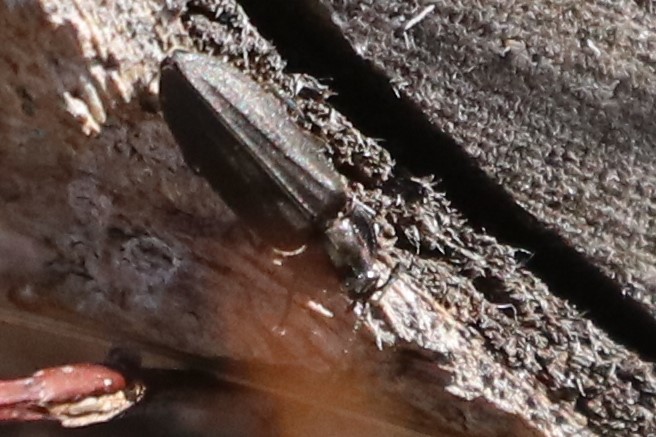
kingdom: Animalia
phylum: Arthropoda
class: Insecta
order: Coleoptera
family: Lampyridae
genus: Photinus
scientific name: Photinus corrusca
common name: Winter firefly
